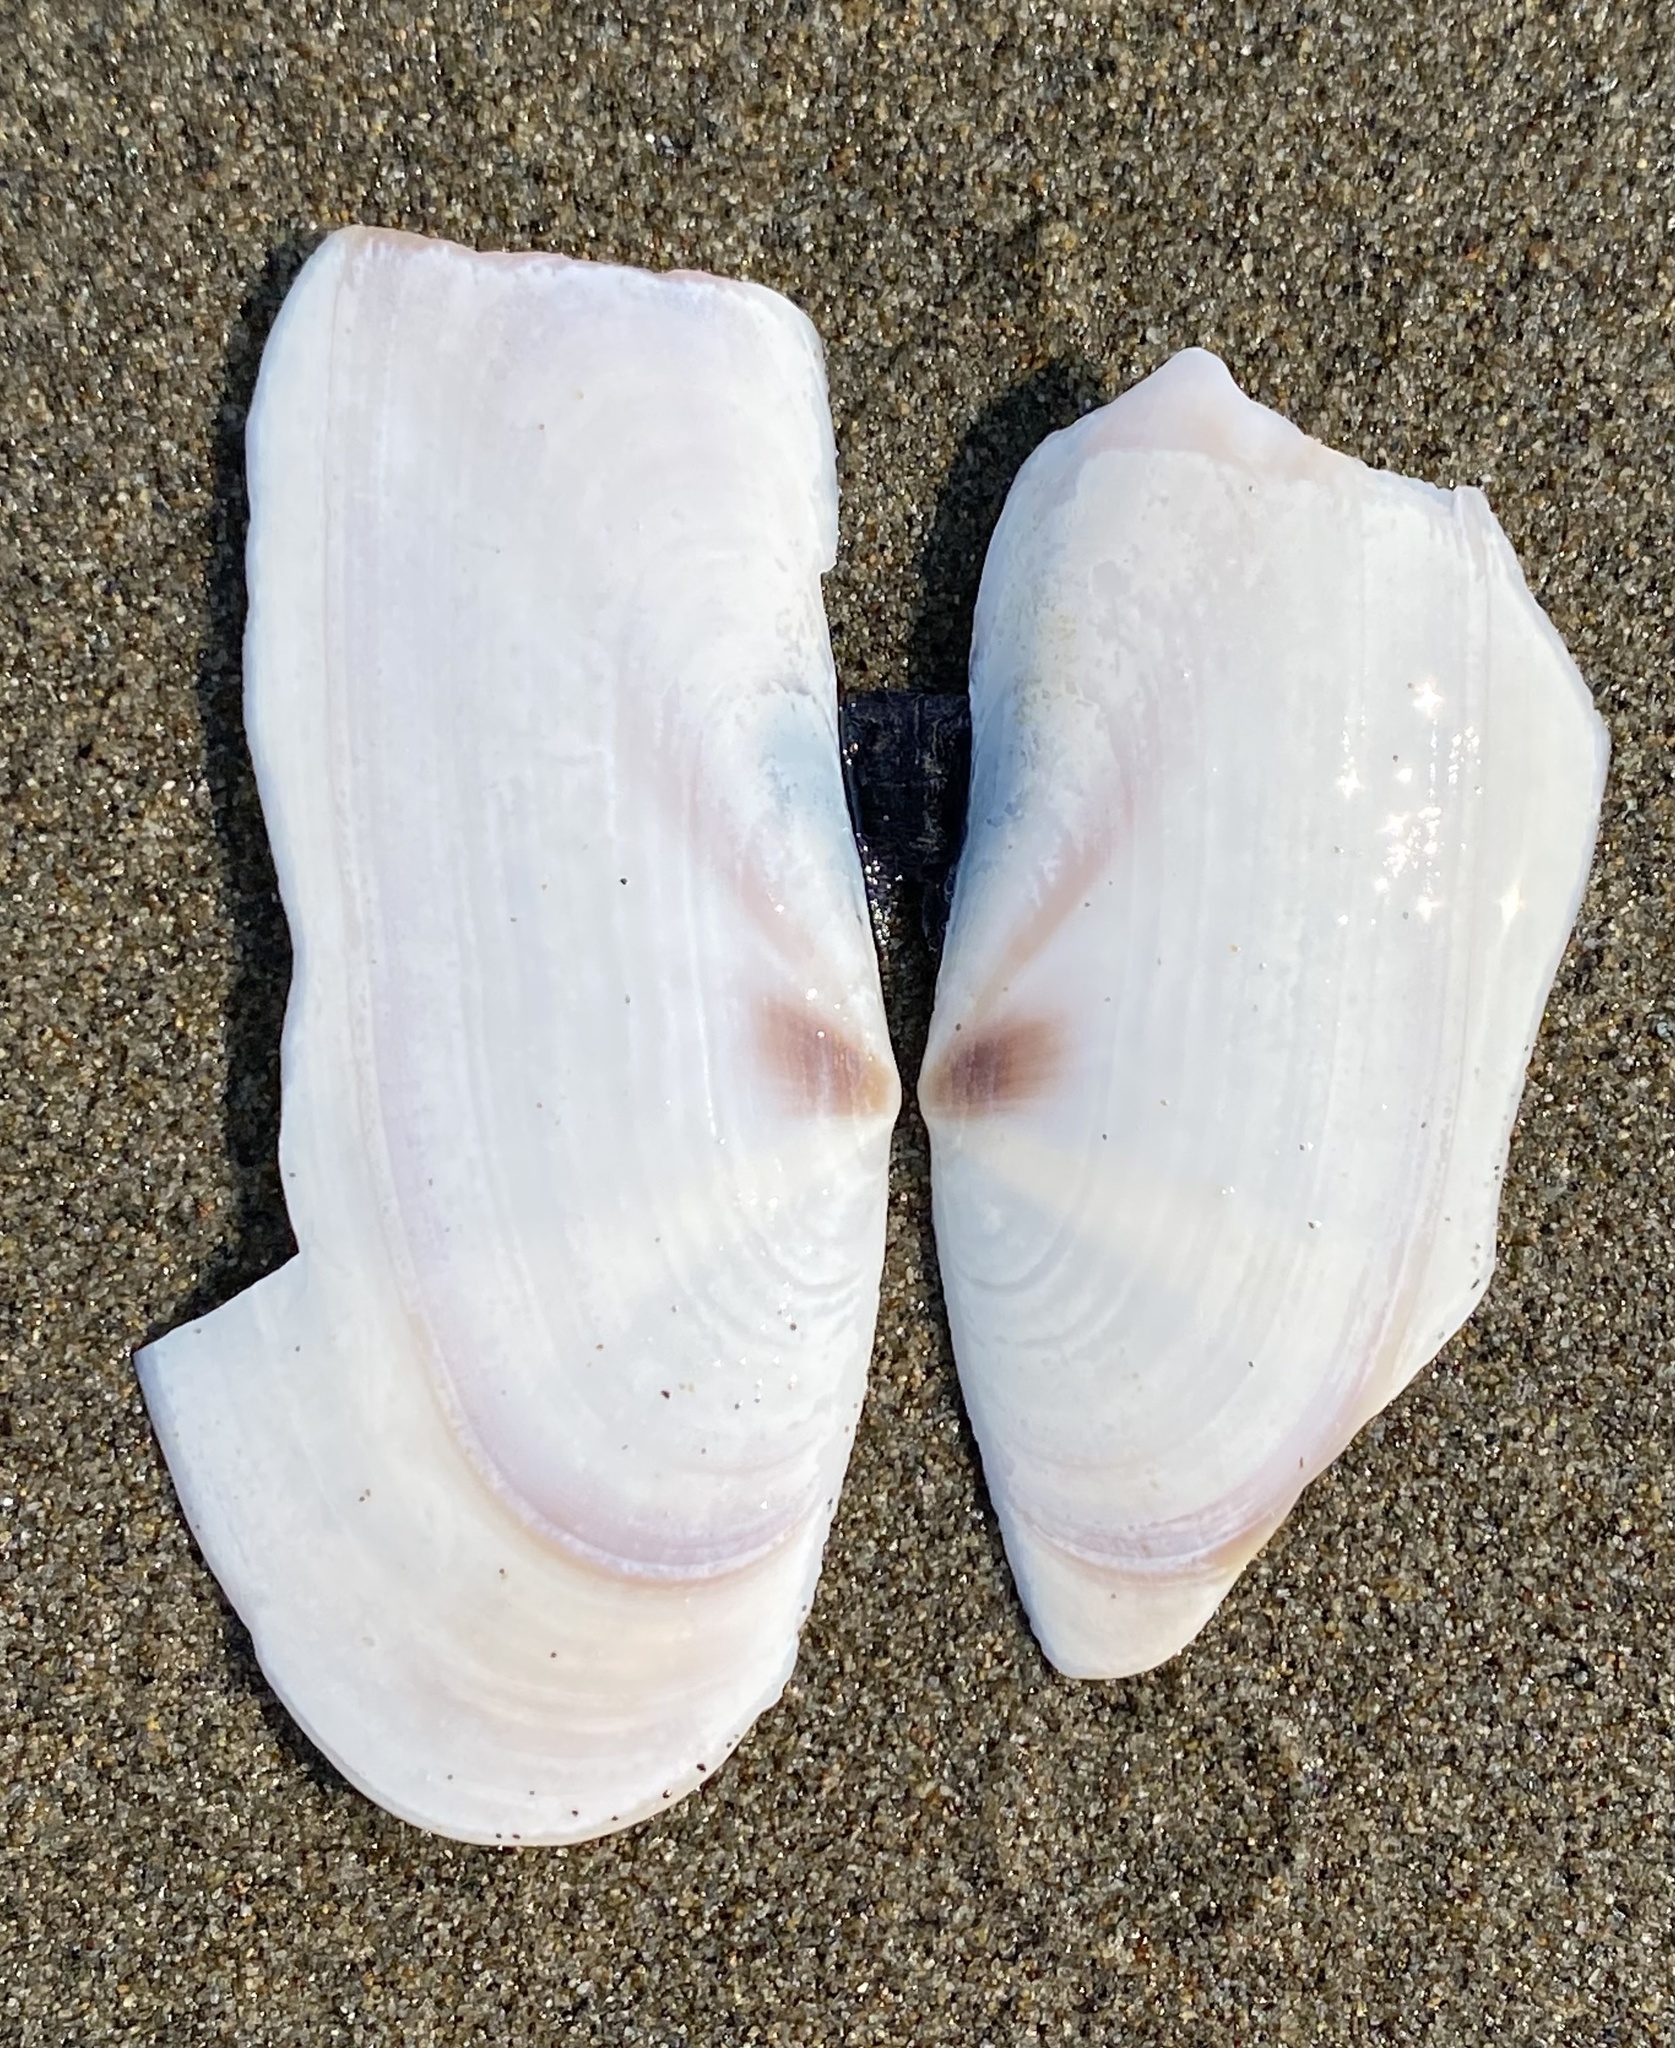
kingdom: Animalia
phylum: Mollusca
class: Bivalvia
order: Adapedonta
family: Pharidae
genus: Siliqua
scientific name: Siliqua patula
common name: Pacific razor clam
